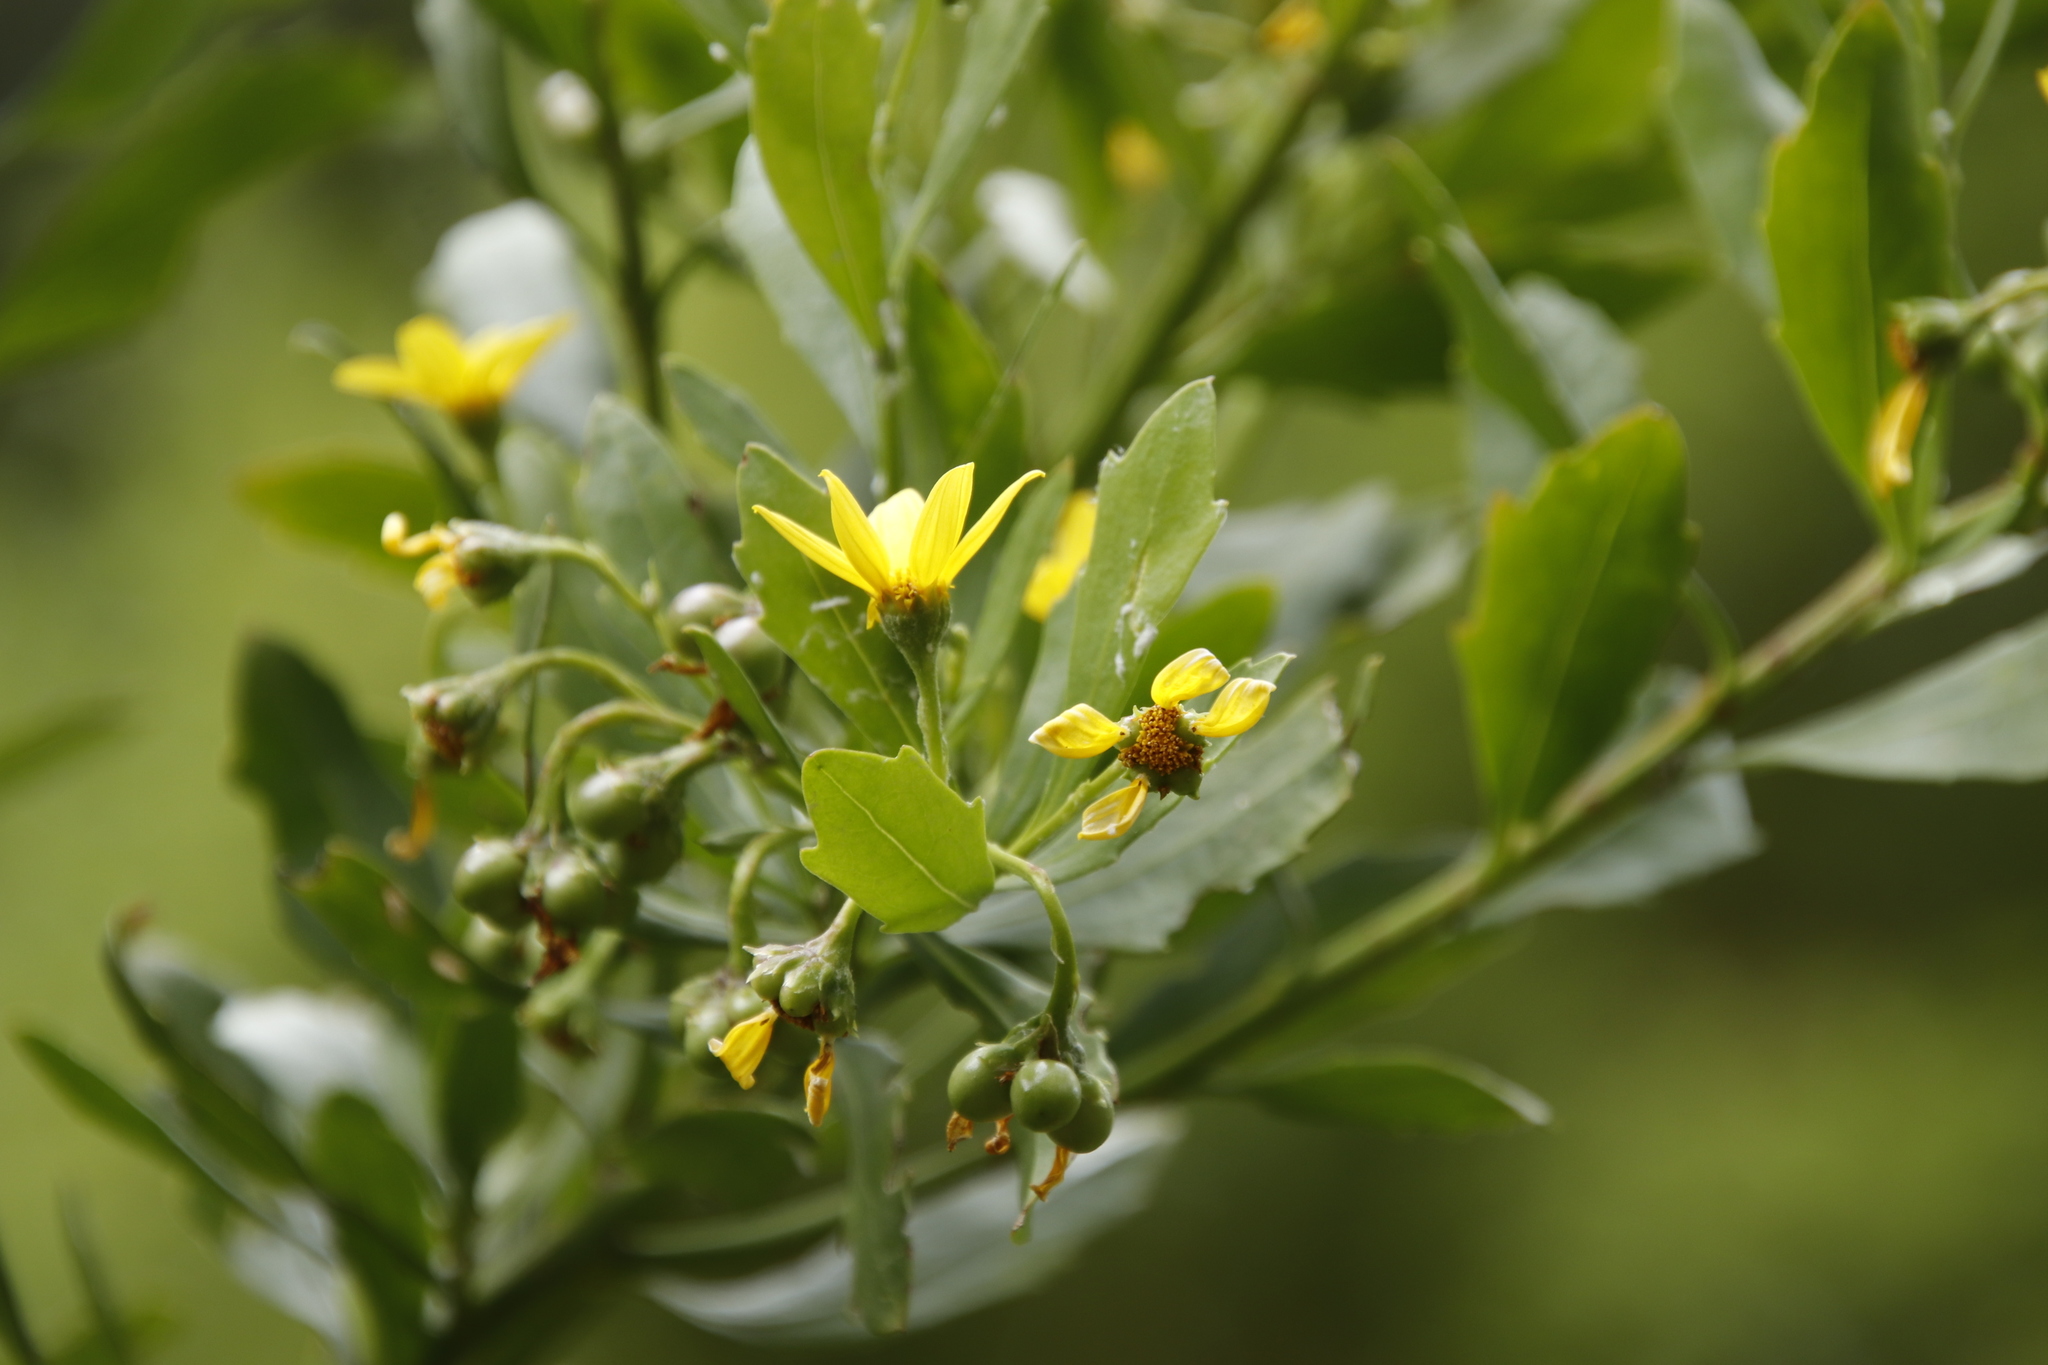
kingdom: Plantae
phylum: Tracheophyta
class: Magnoliopsida
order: Asterales
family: Asteraceae
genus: Osteospermum
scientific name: Osteospermum moniliferum
